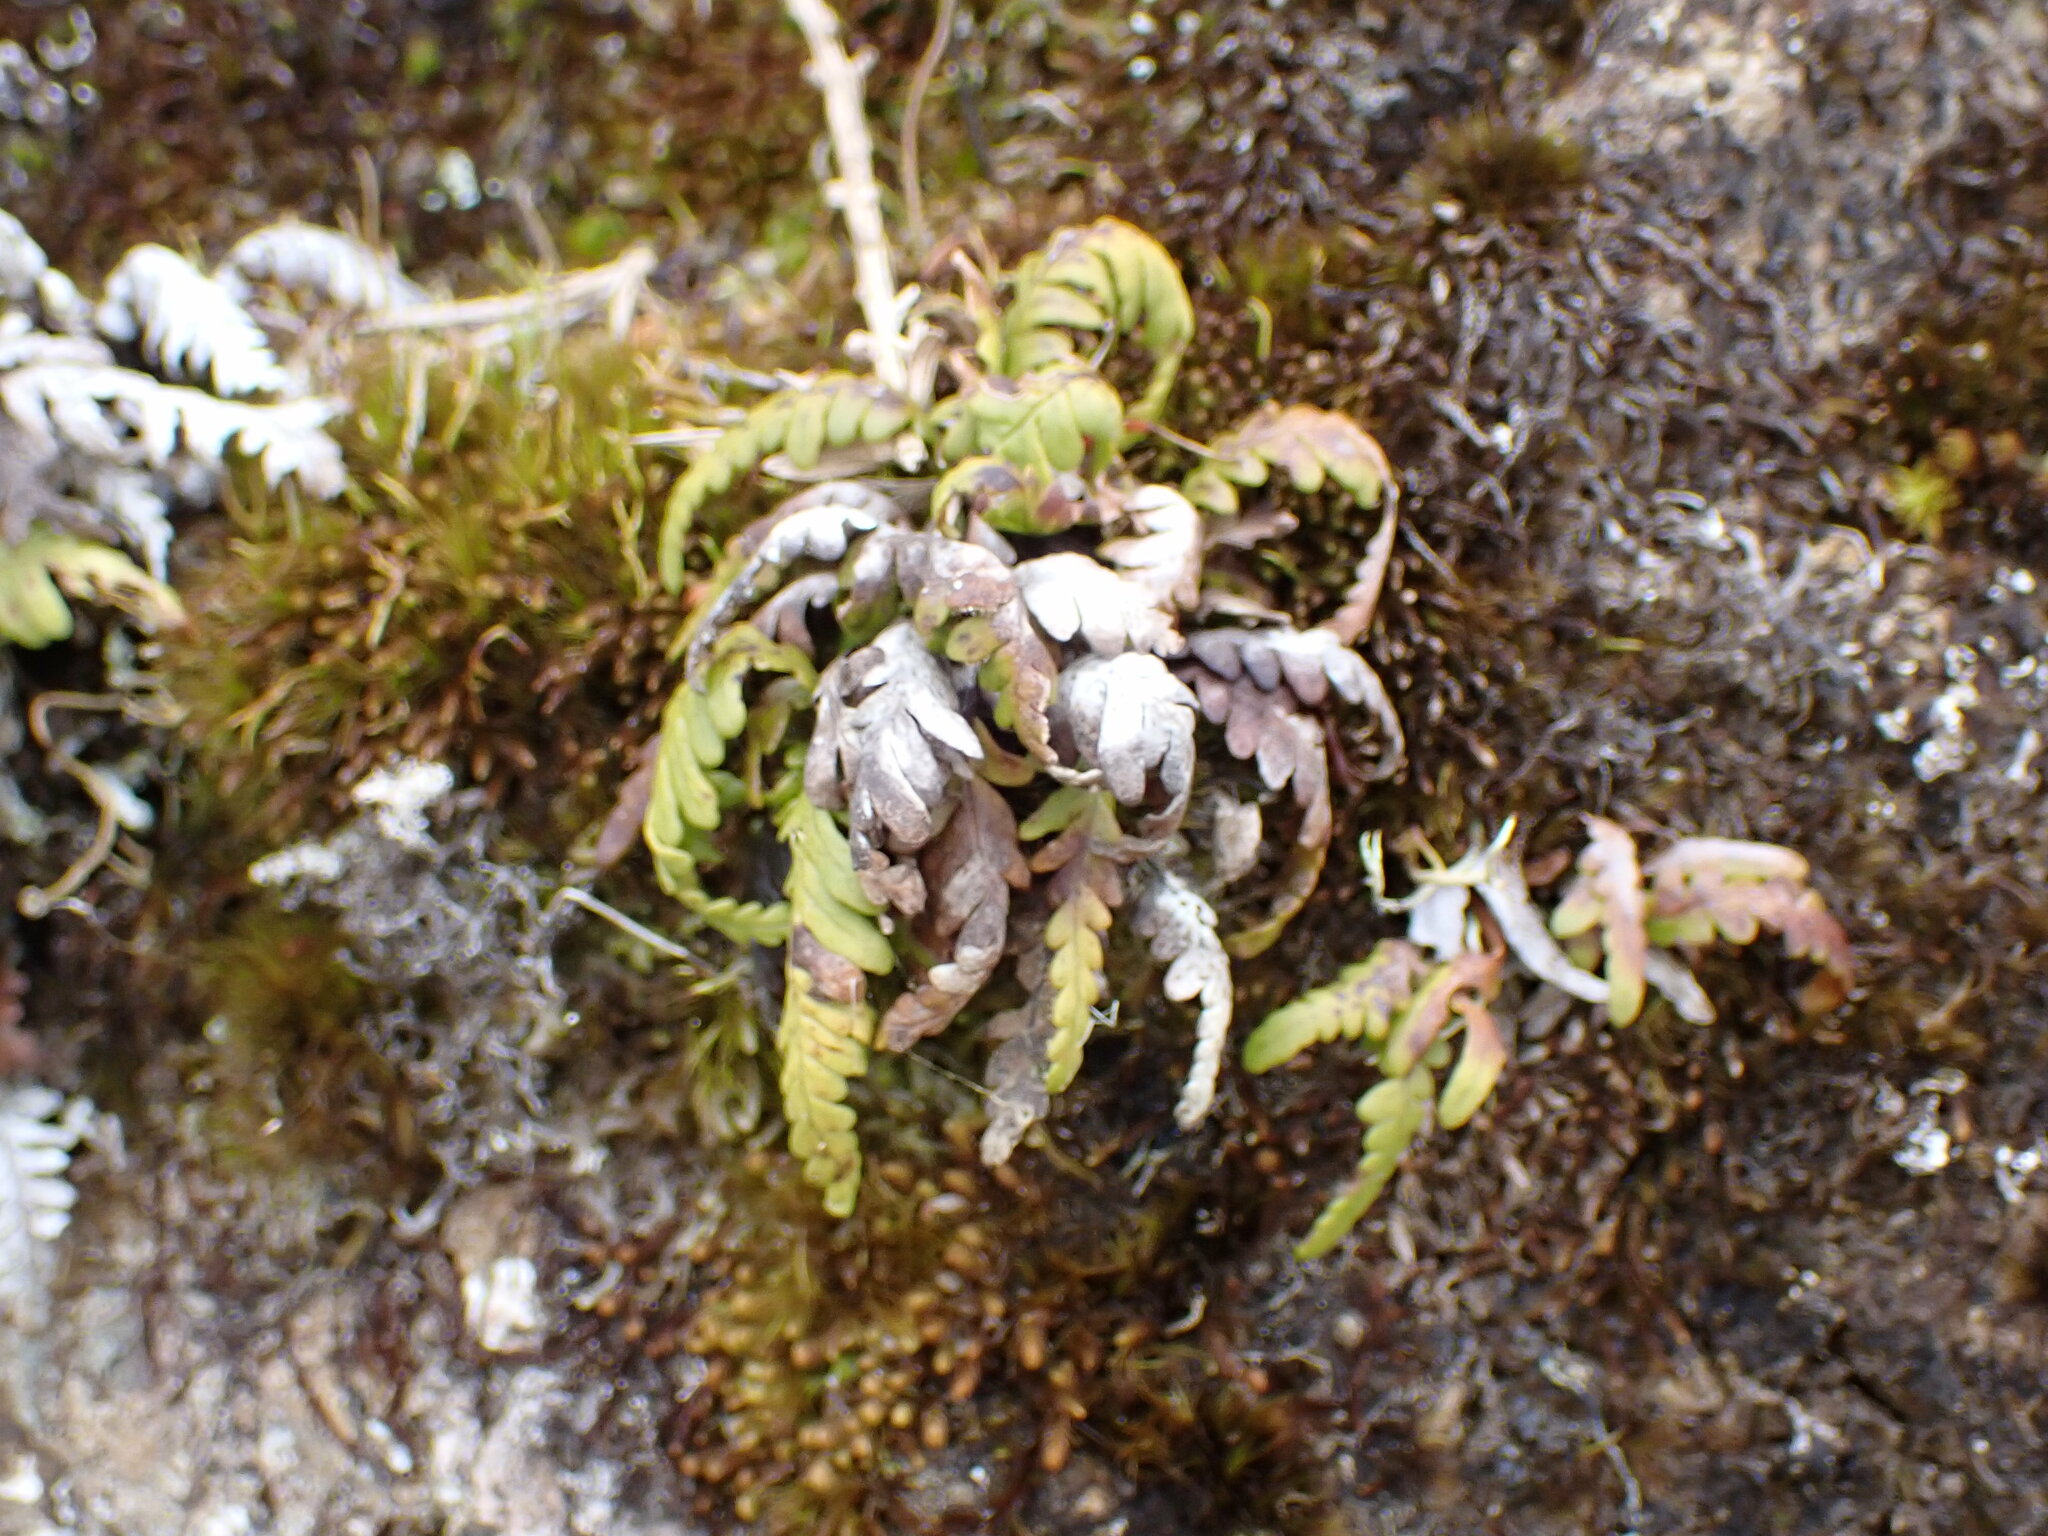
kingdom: Plantae
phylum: Tracheophyta
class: Polypodiopsida
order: Polypodiales
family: Polypodiaceae
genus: Notogrammitis
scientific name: Notogrammitis heterophylla
